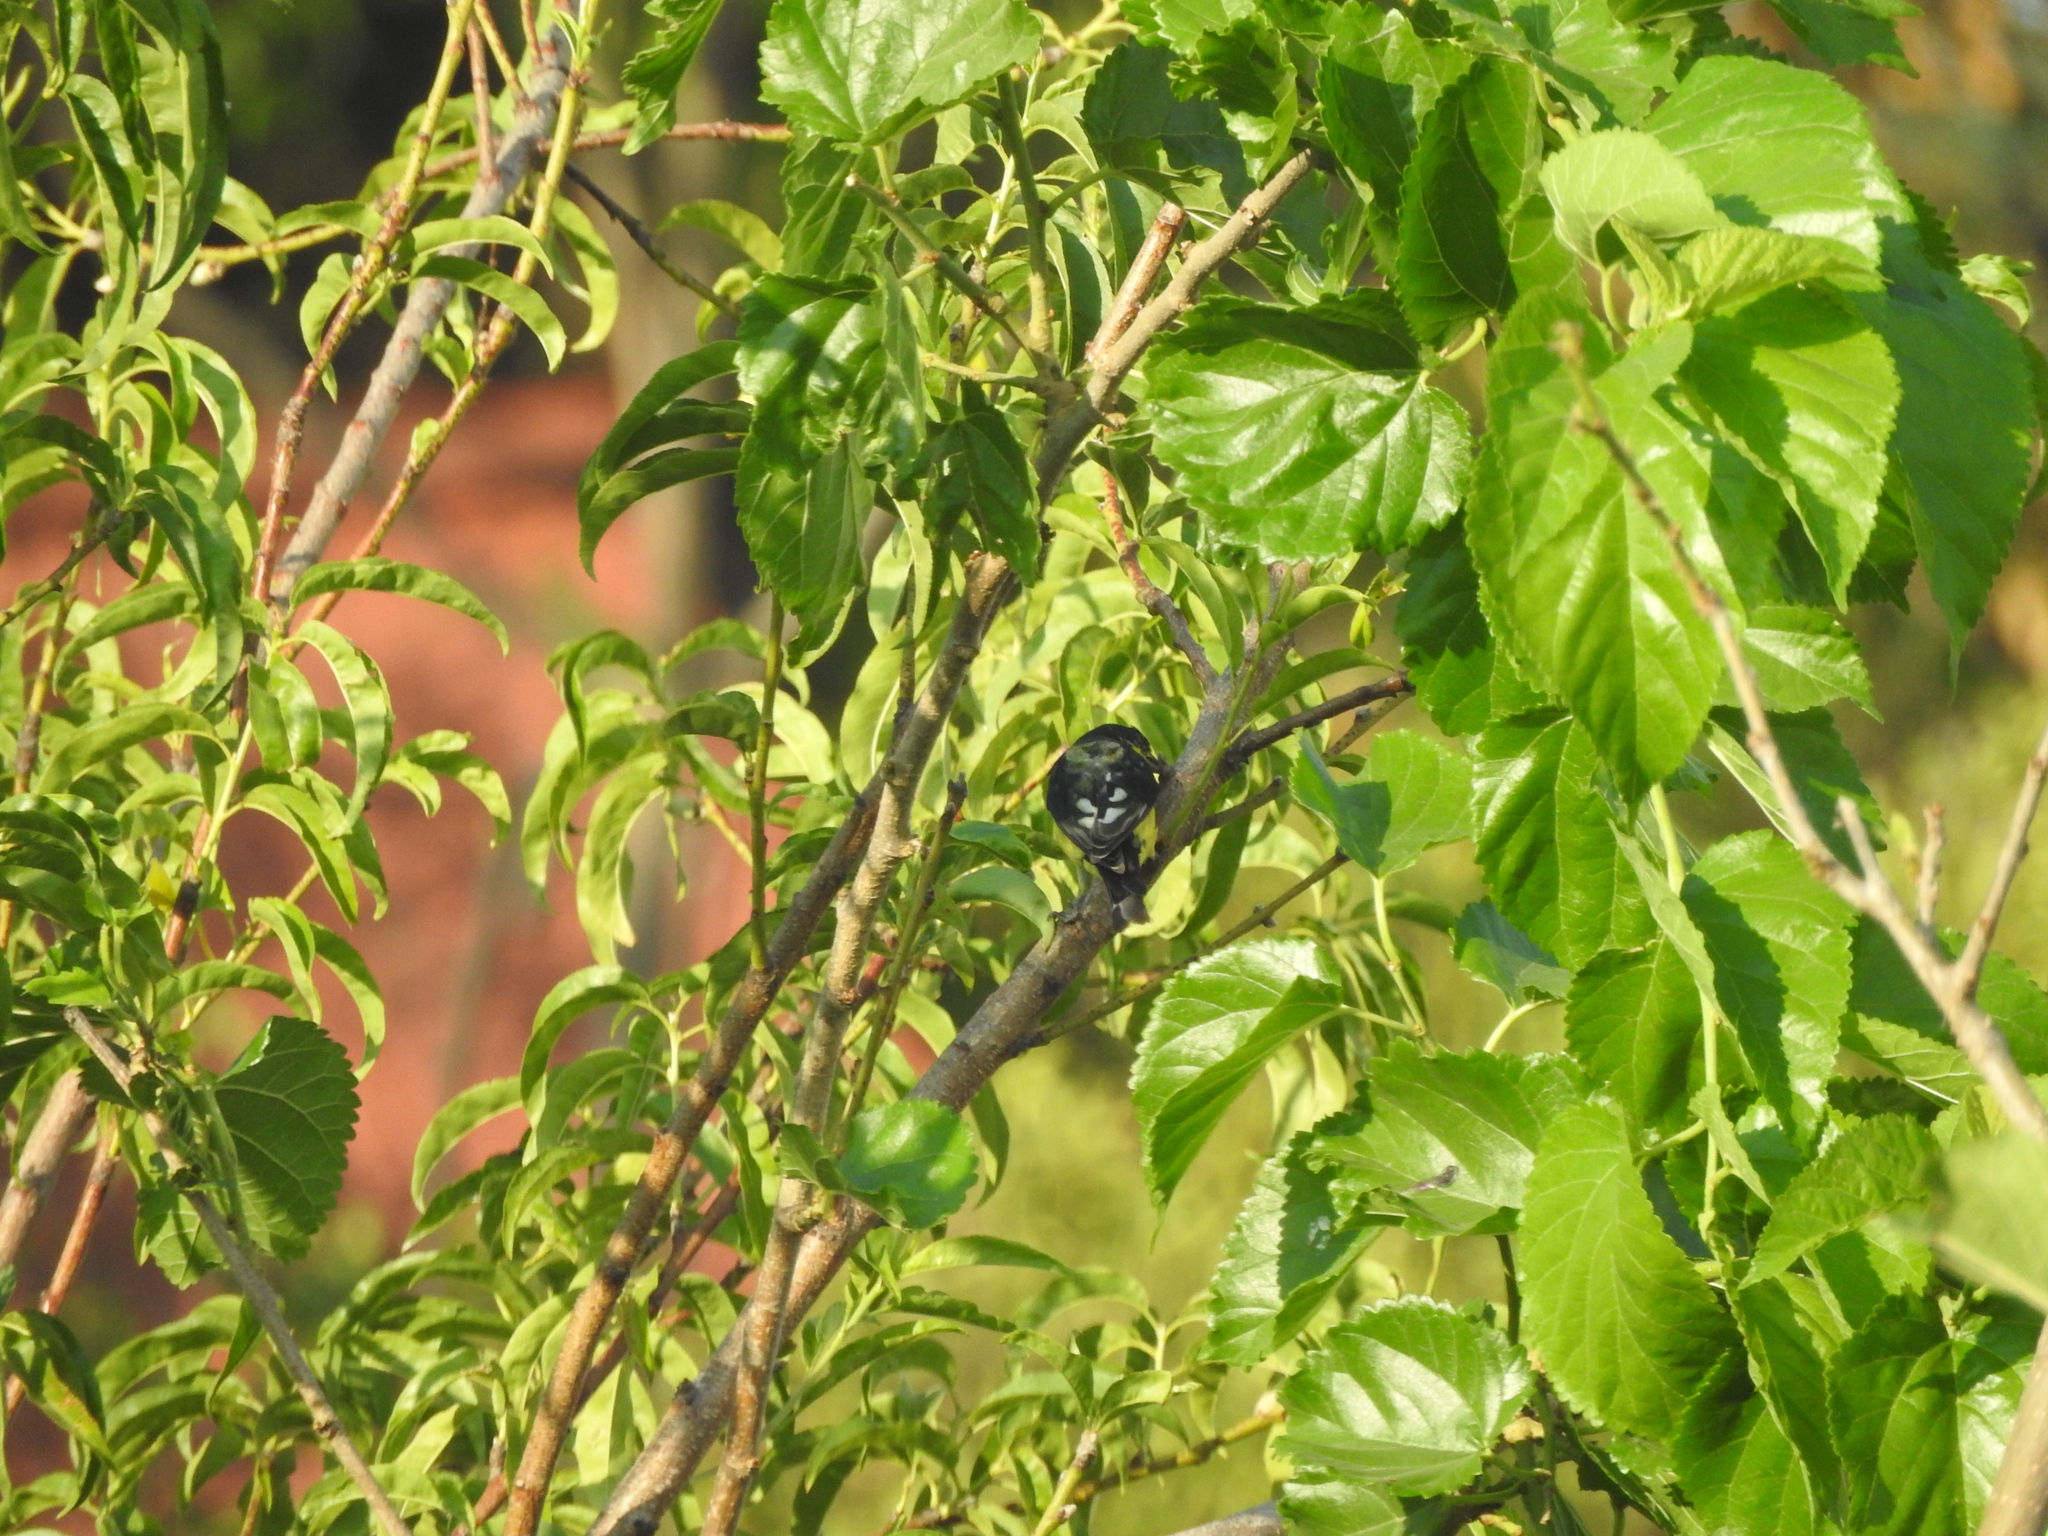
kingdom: Animalia
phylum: Chordata
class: Aves
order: Passeriformes
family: Fringillidae
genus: Spinus
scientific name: Spinus psaltria
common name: Lesser goldfinch
